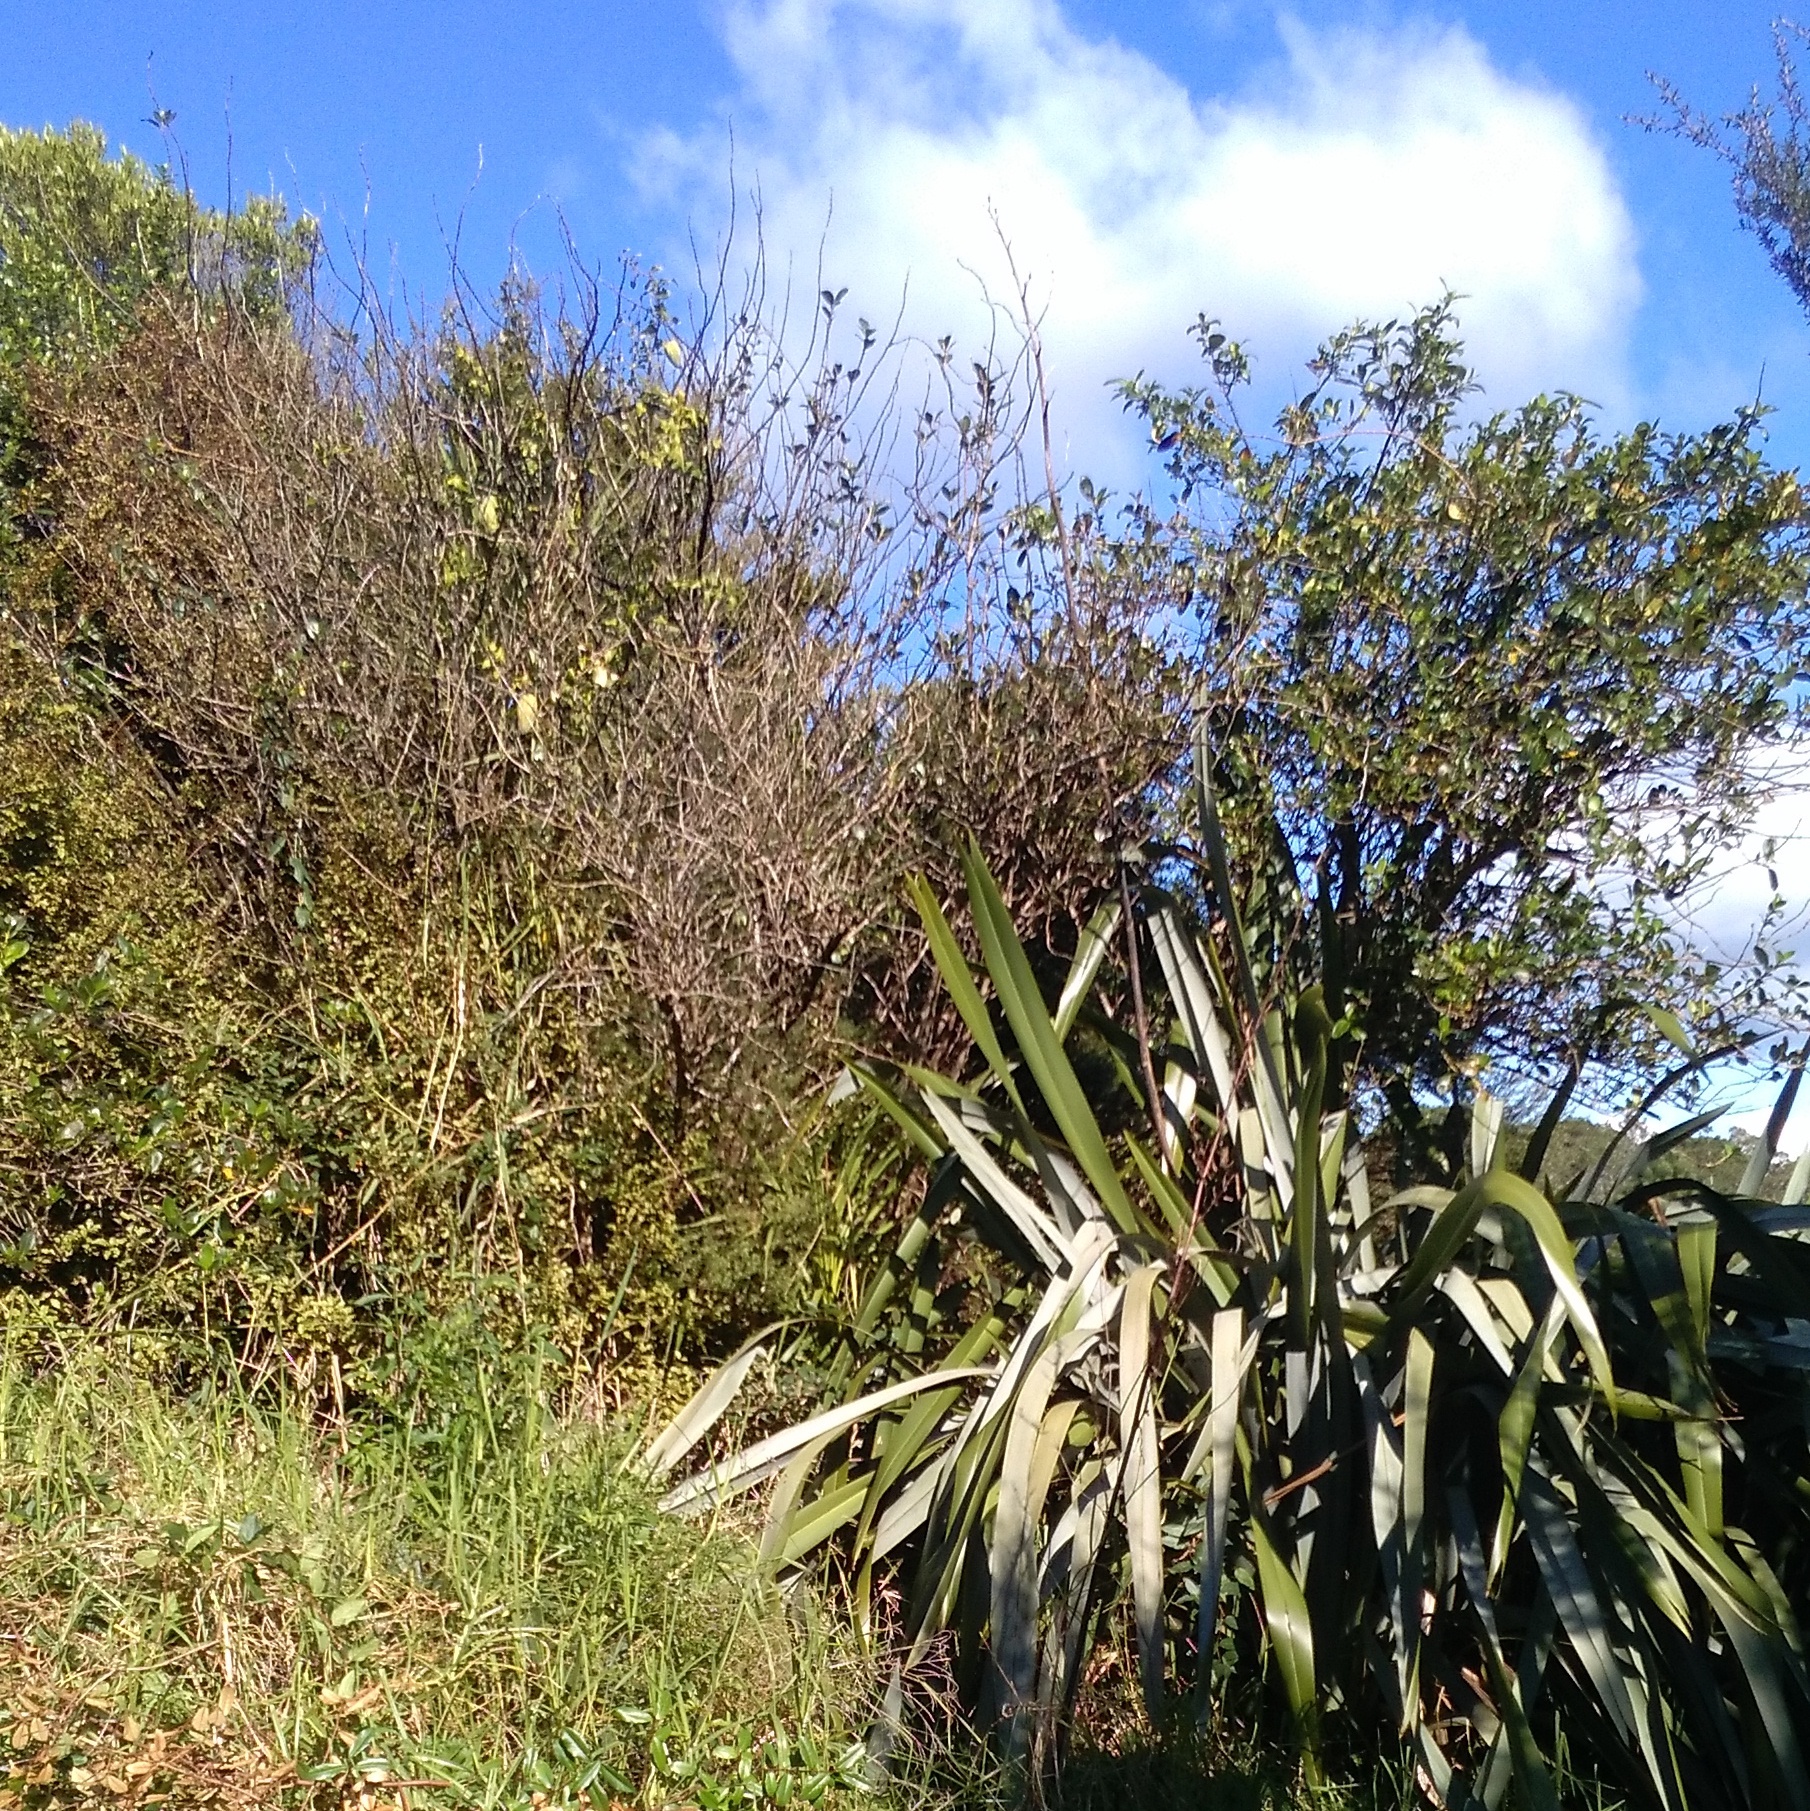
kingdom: Plantae
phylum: Tracheophyta
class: Magnoliopsida
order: Gentianales
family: Apocynaceae
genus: Araujia
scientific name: Araujia sericifera
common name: White bladderflower
